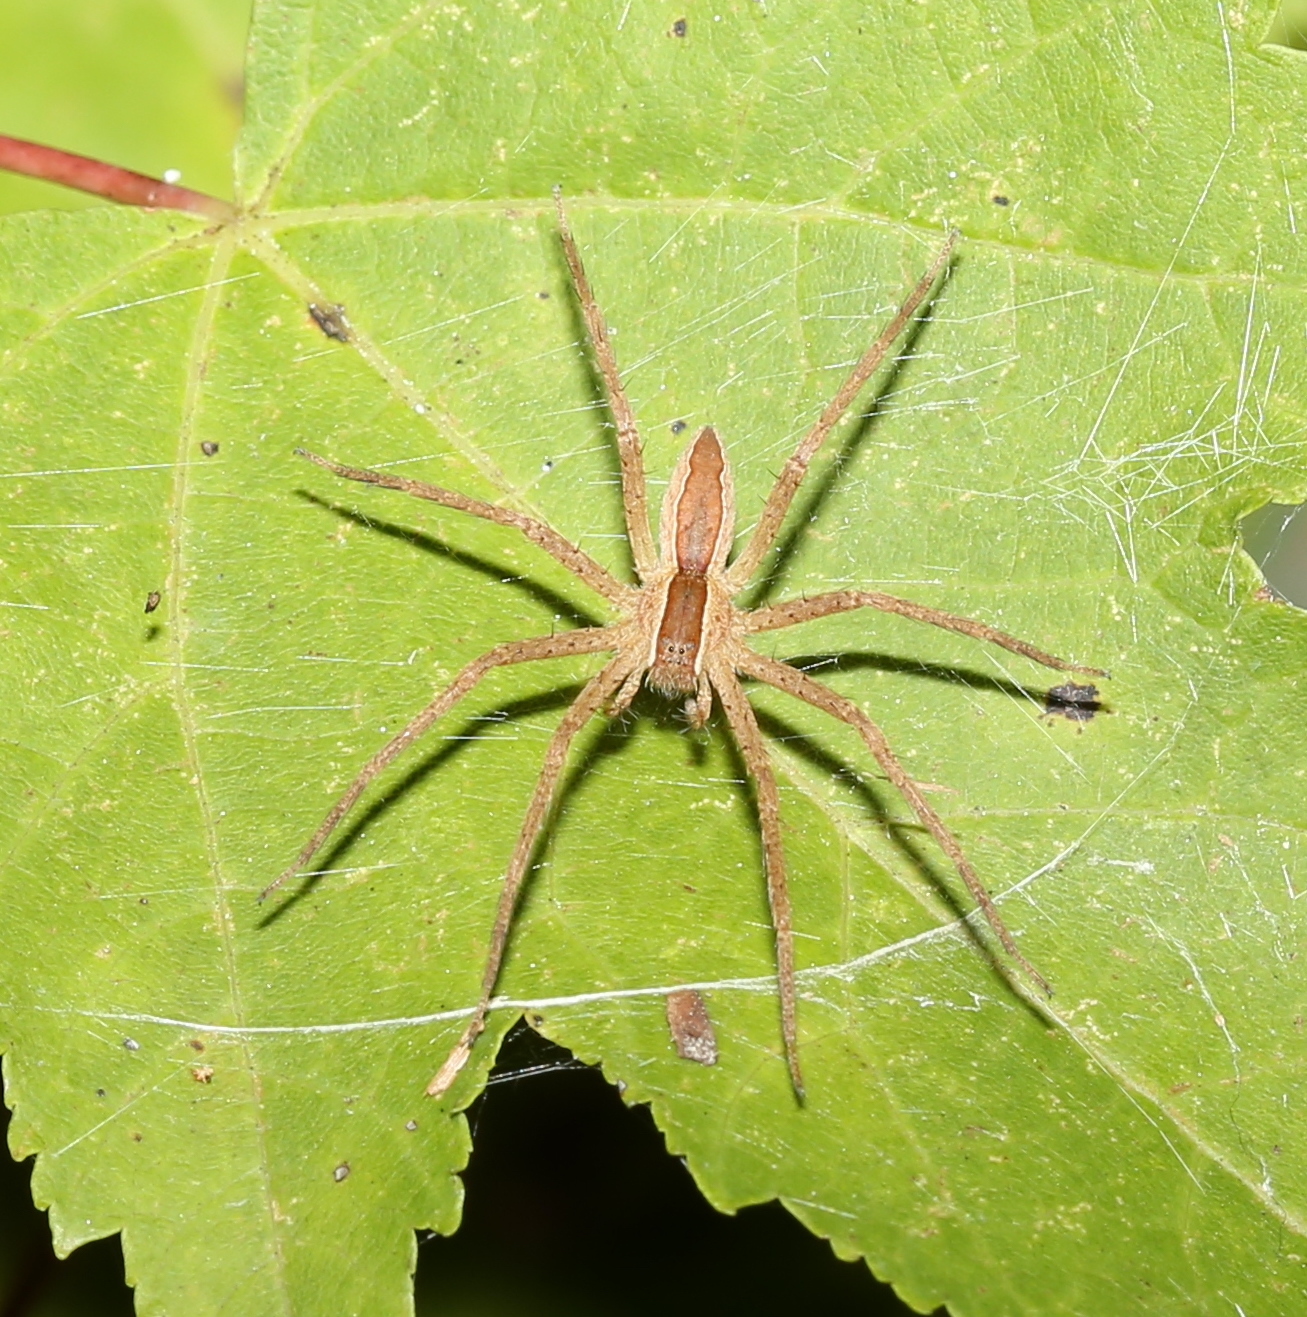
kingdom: Animalia
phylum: Arthropoda
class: Arachnida
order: Araneae
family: Pisauridae
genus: Pisaurina
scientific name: Pisaurina mira
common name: American nursery web spider
